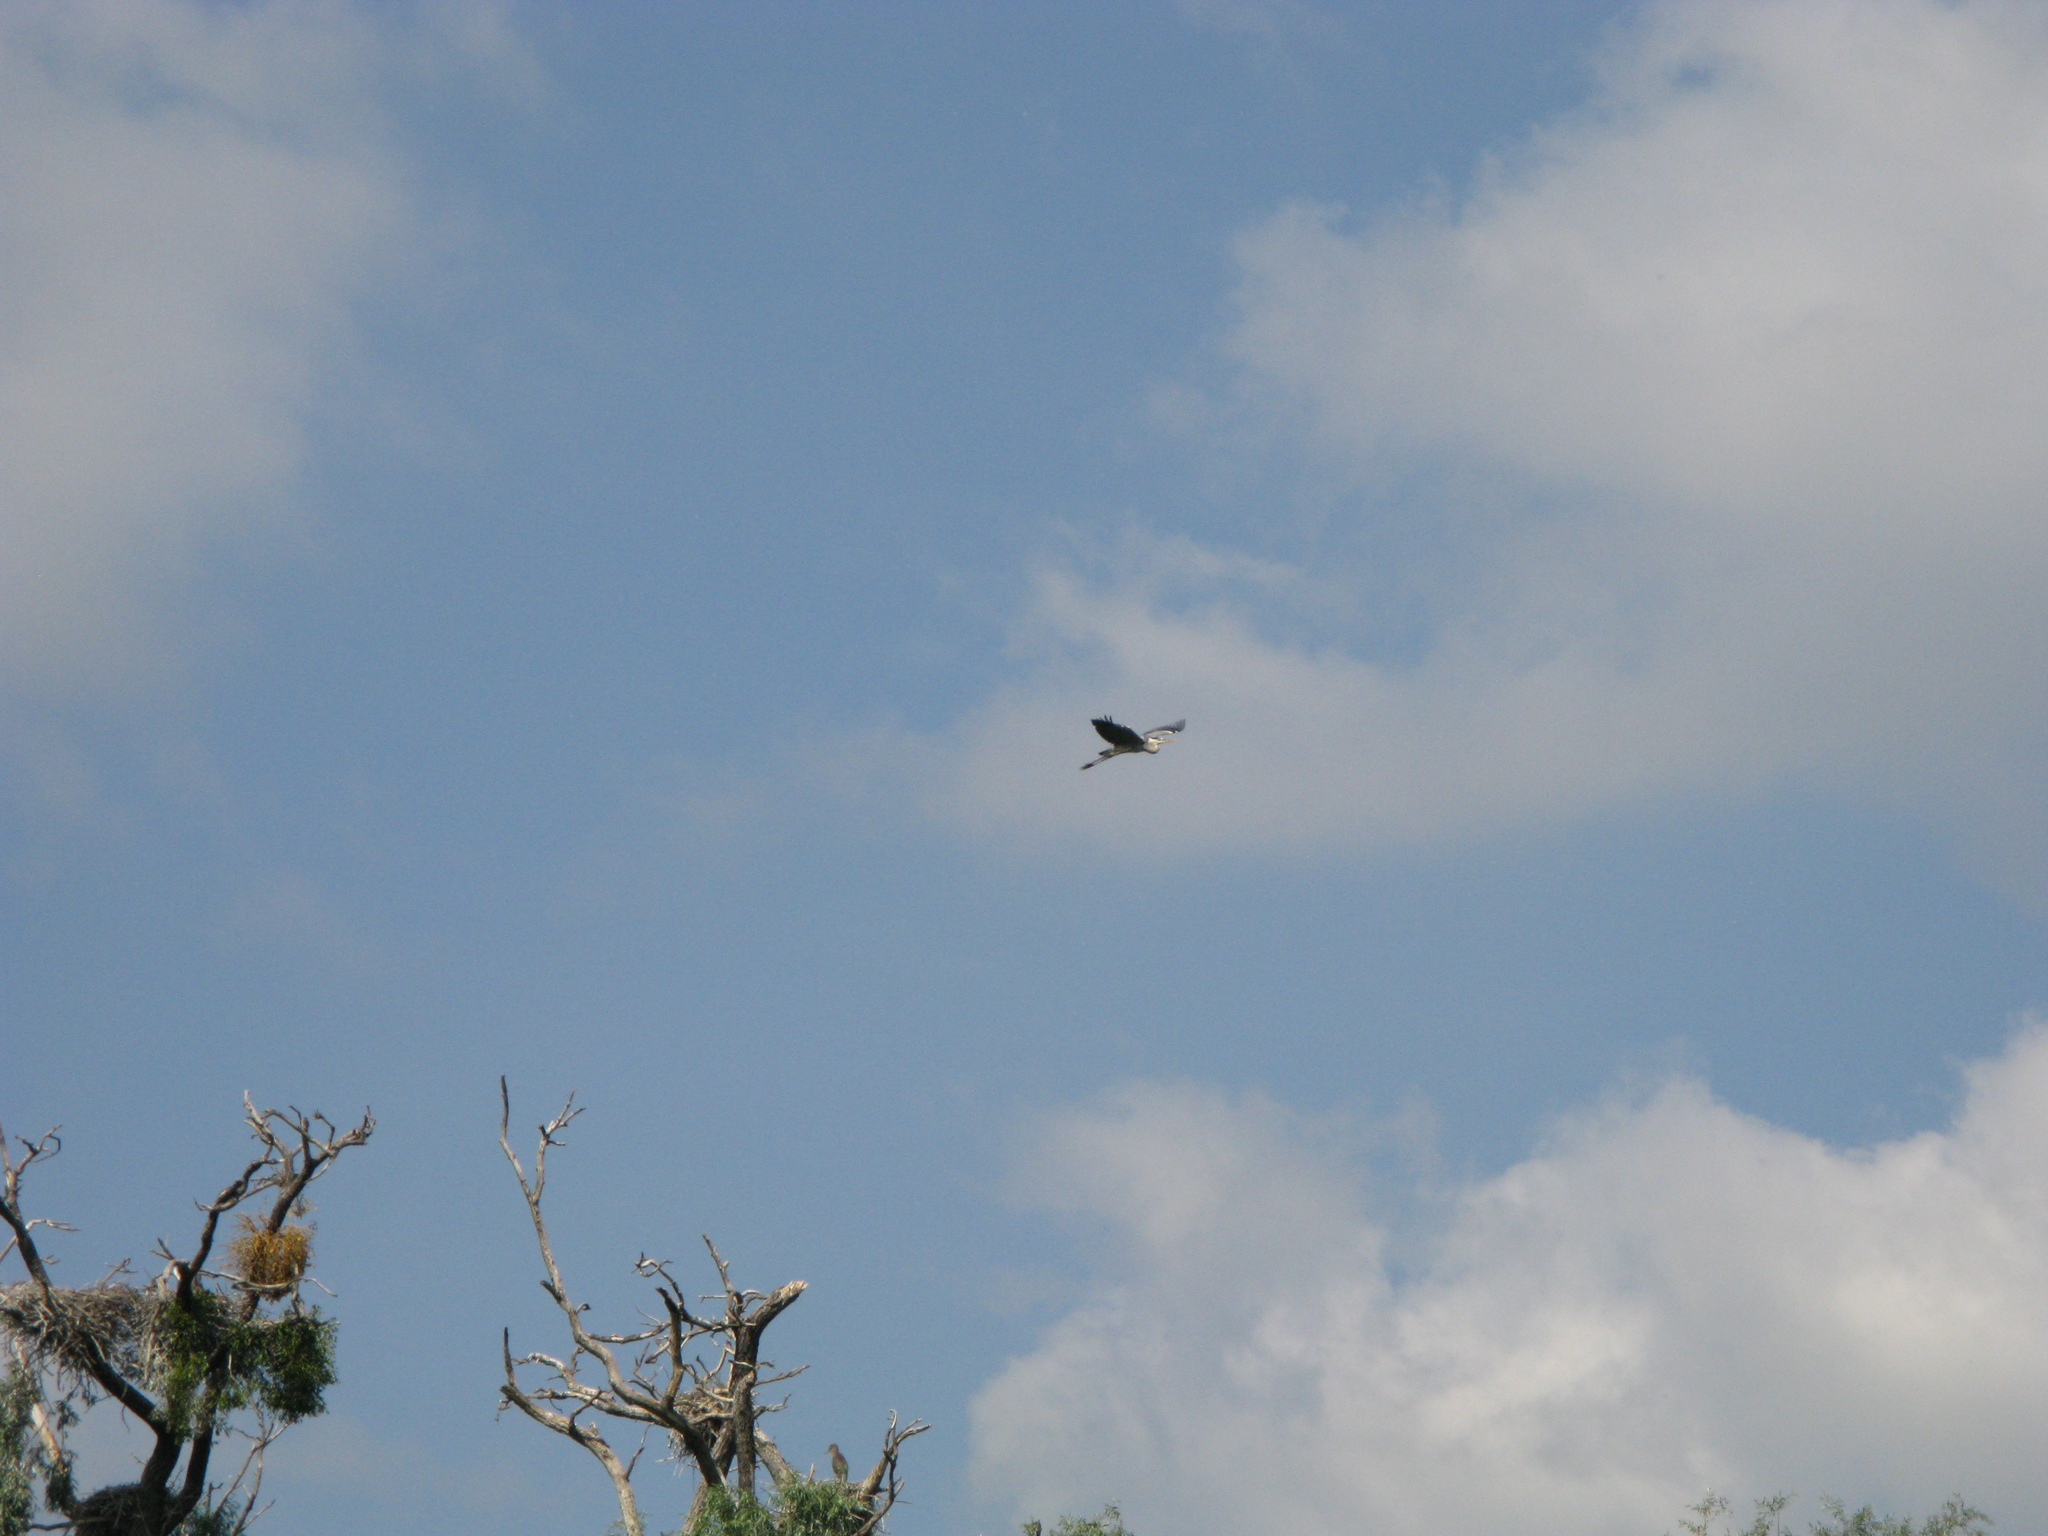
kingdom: Animalia
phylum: Chordata
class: Aves
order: Pelecaniformes
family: Ardeidae
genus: Ardea
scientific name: Ardea cinerea
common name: Grey heron
